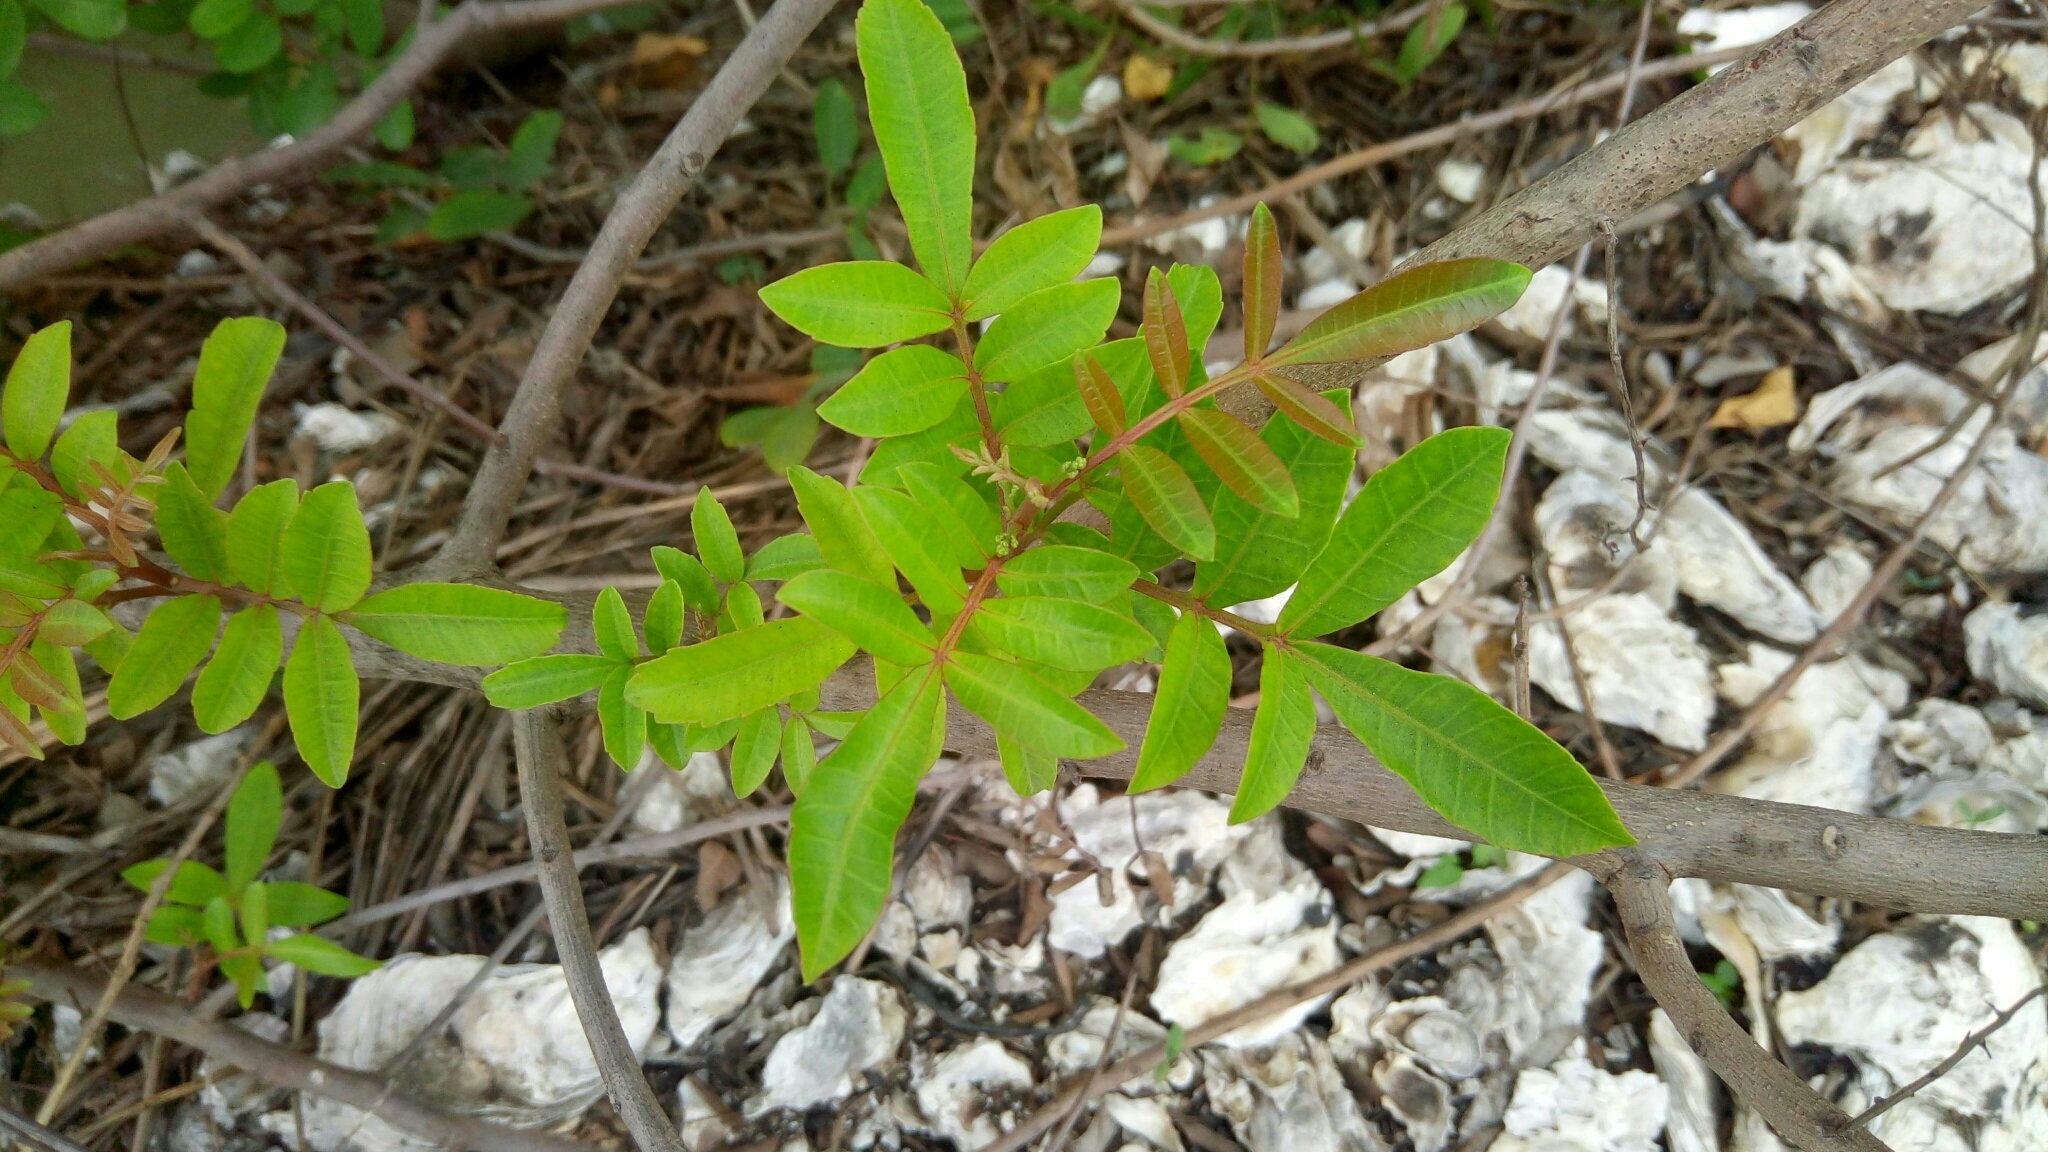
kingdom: Plantae
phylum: Tracheophyta
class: Magnoliopsida
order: Sapindales
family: Anacardiaceae
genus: Schinus
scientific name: Schinus terebinthifolia
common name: Brazilian peppertree
